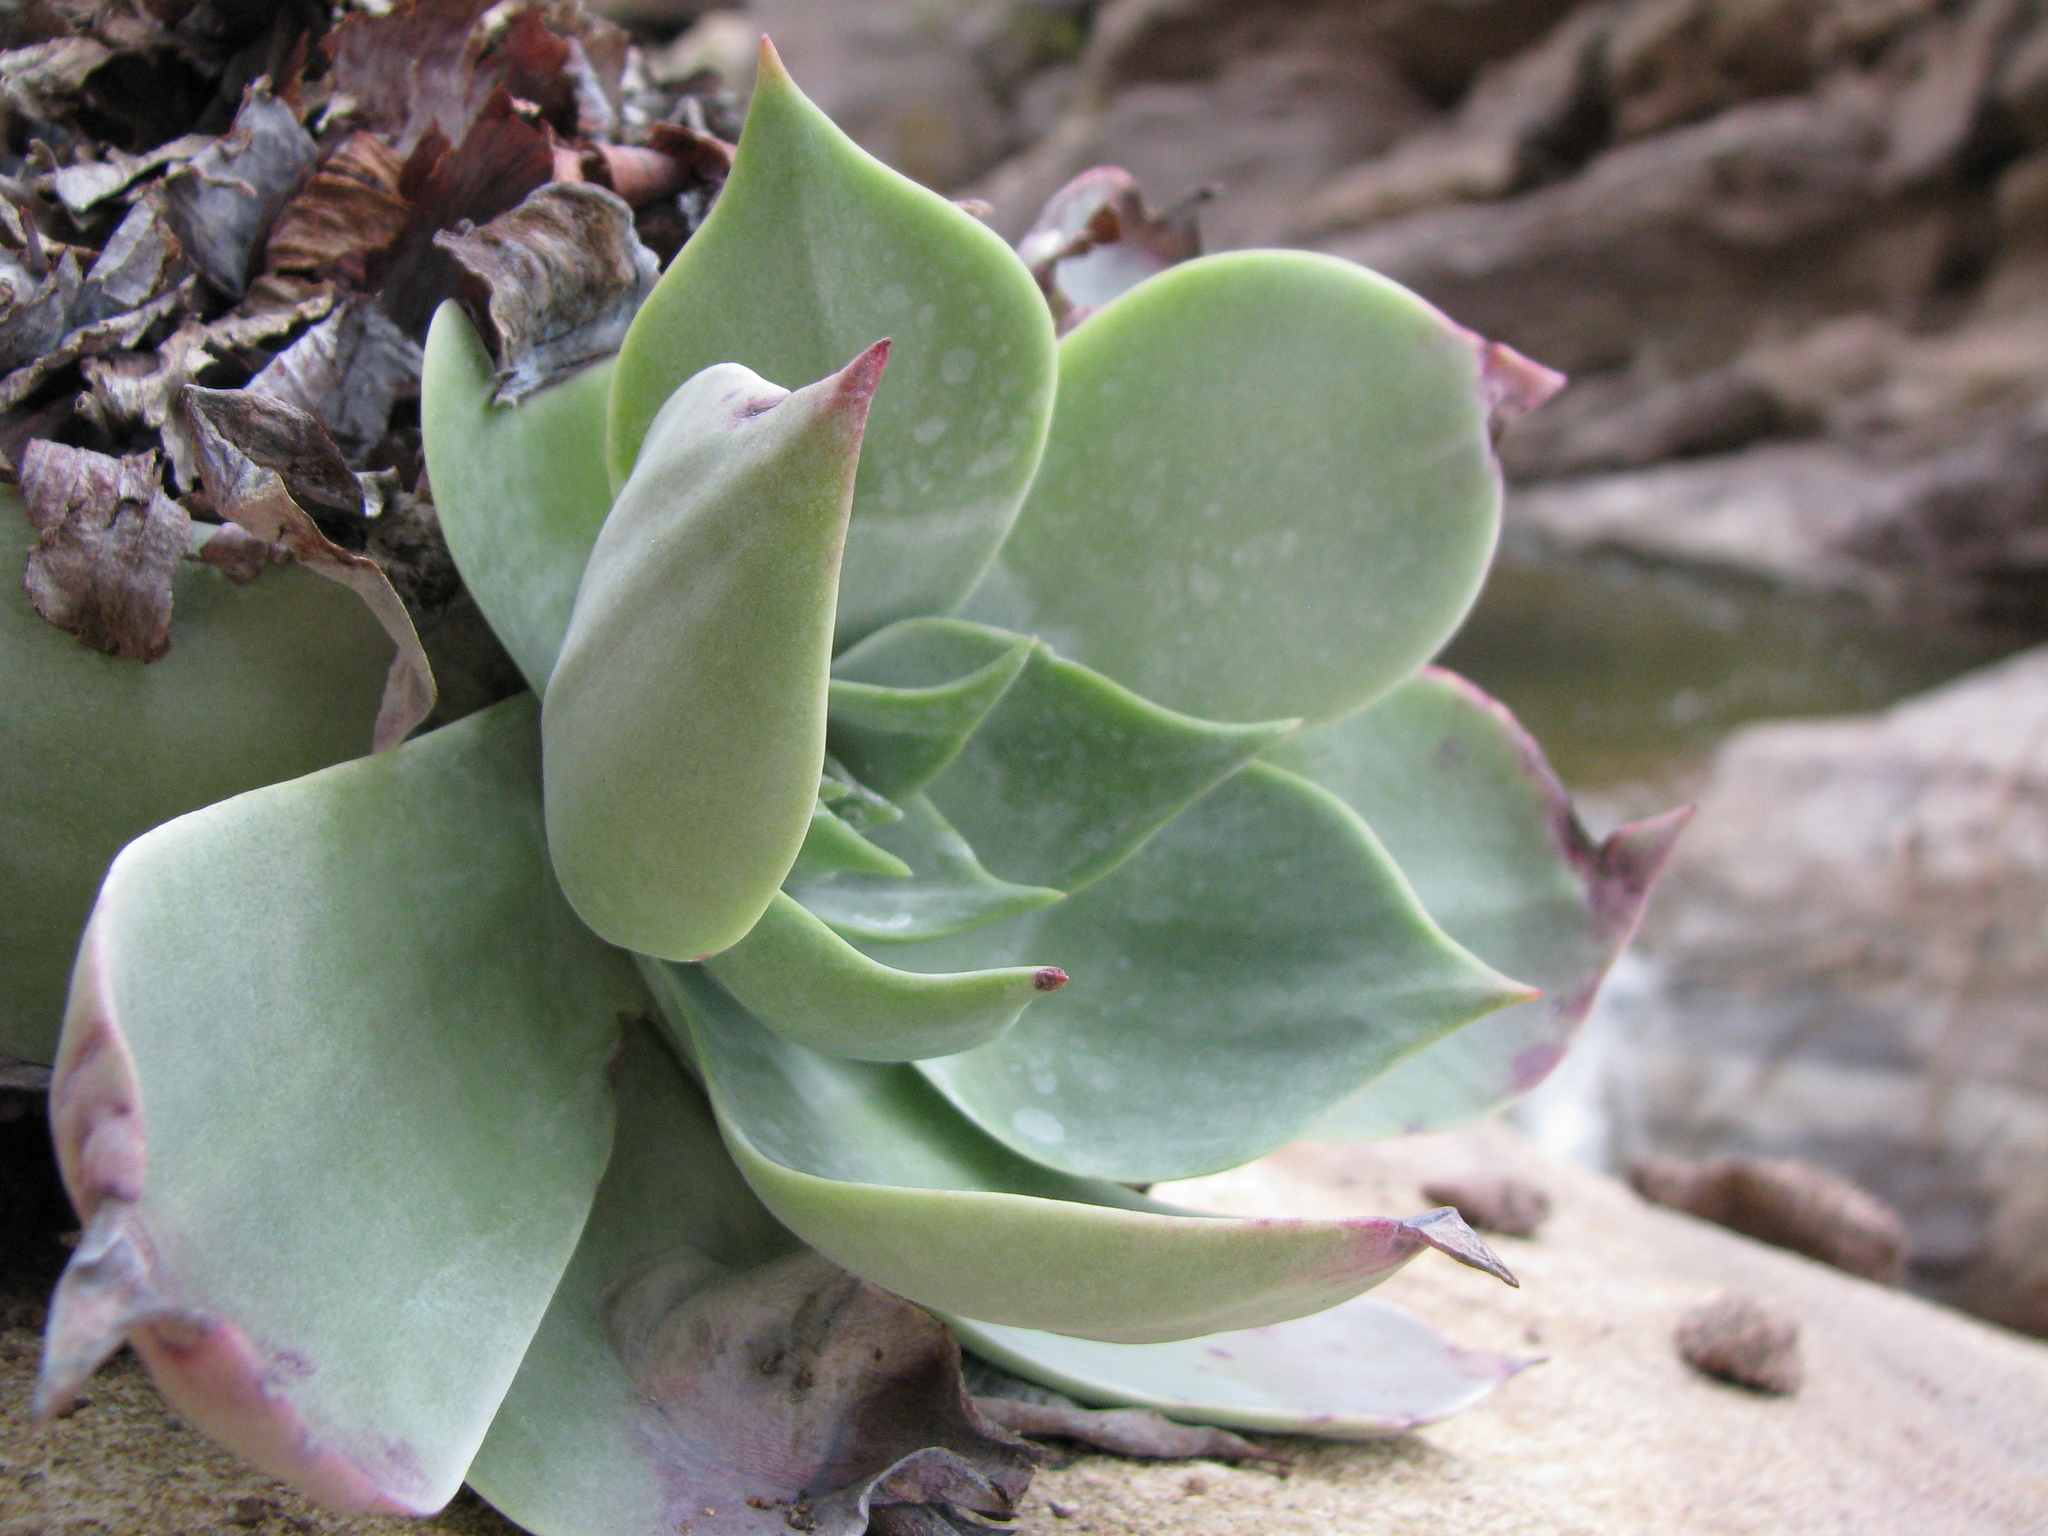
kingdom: Plantae
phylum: Tracheophyta
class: Magnoliopsida
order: Saxifragales
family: Crassulaceae
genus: Dudleya
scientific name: Dudleya pulverulenta
